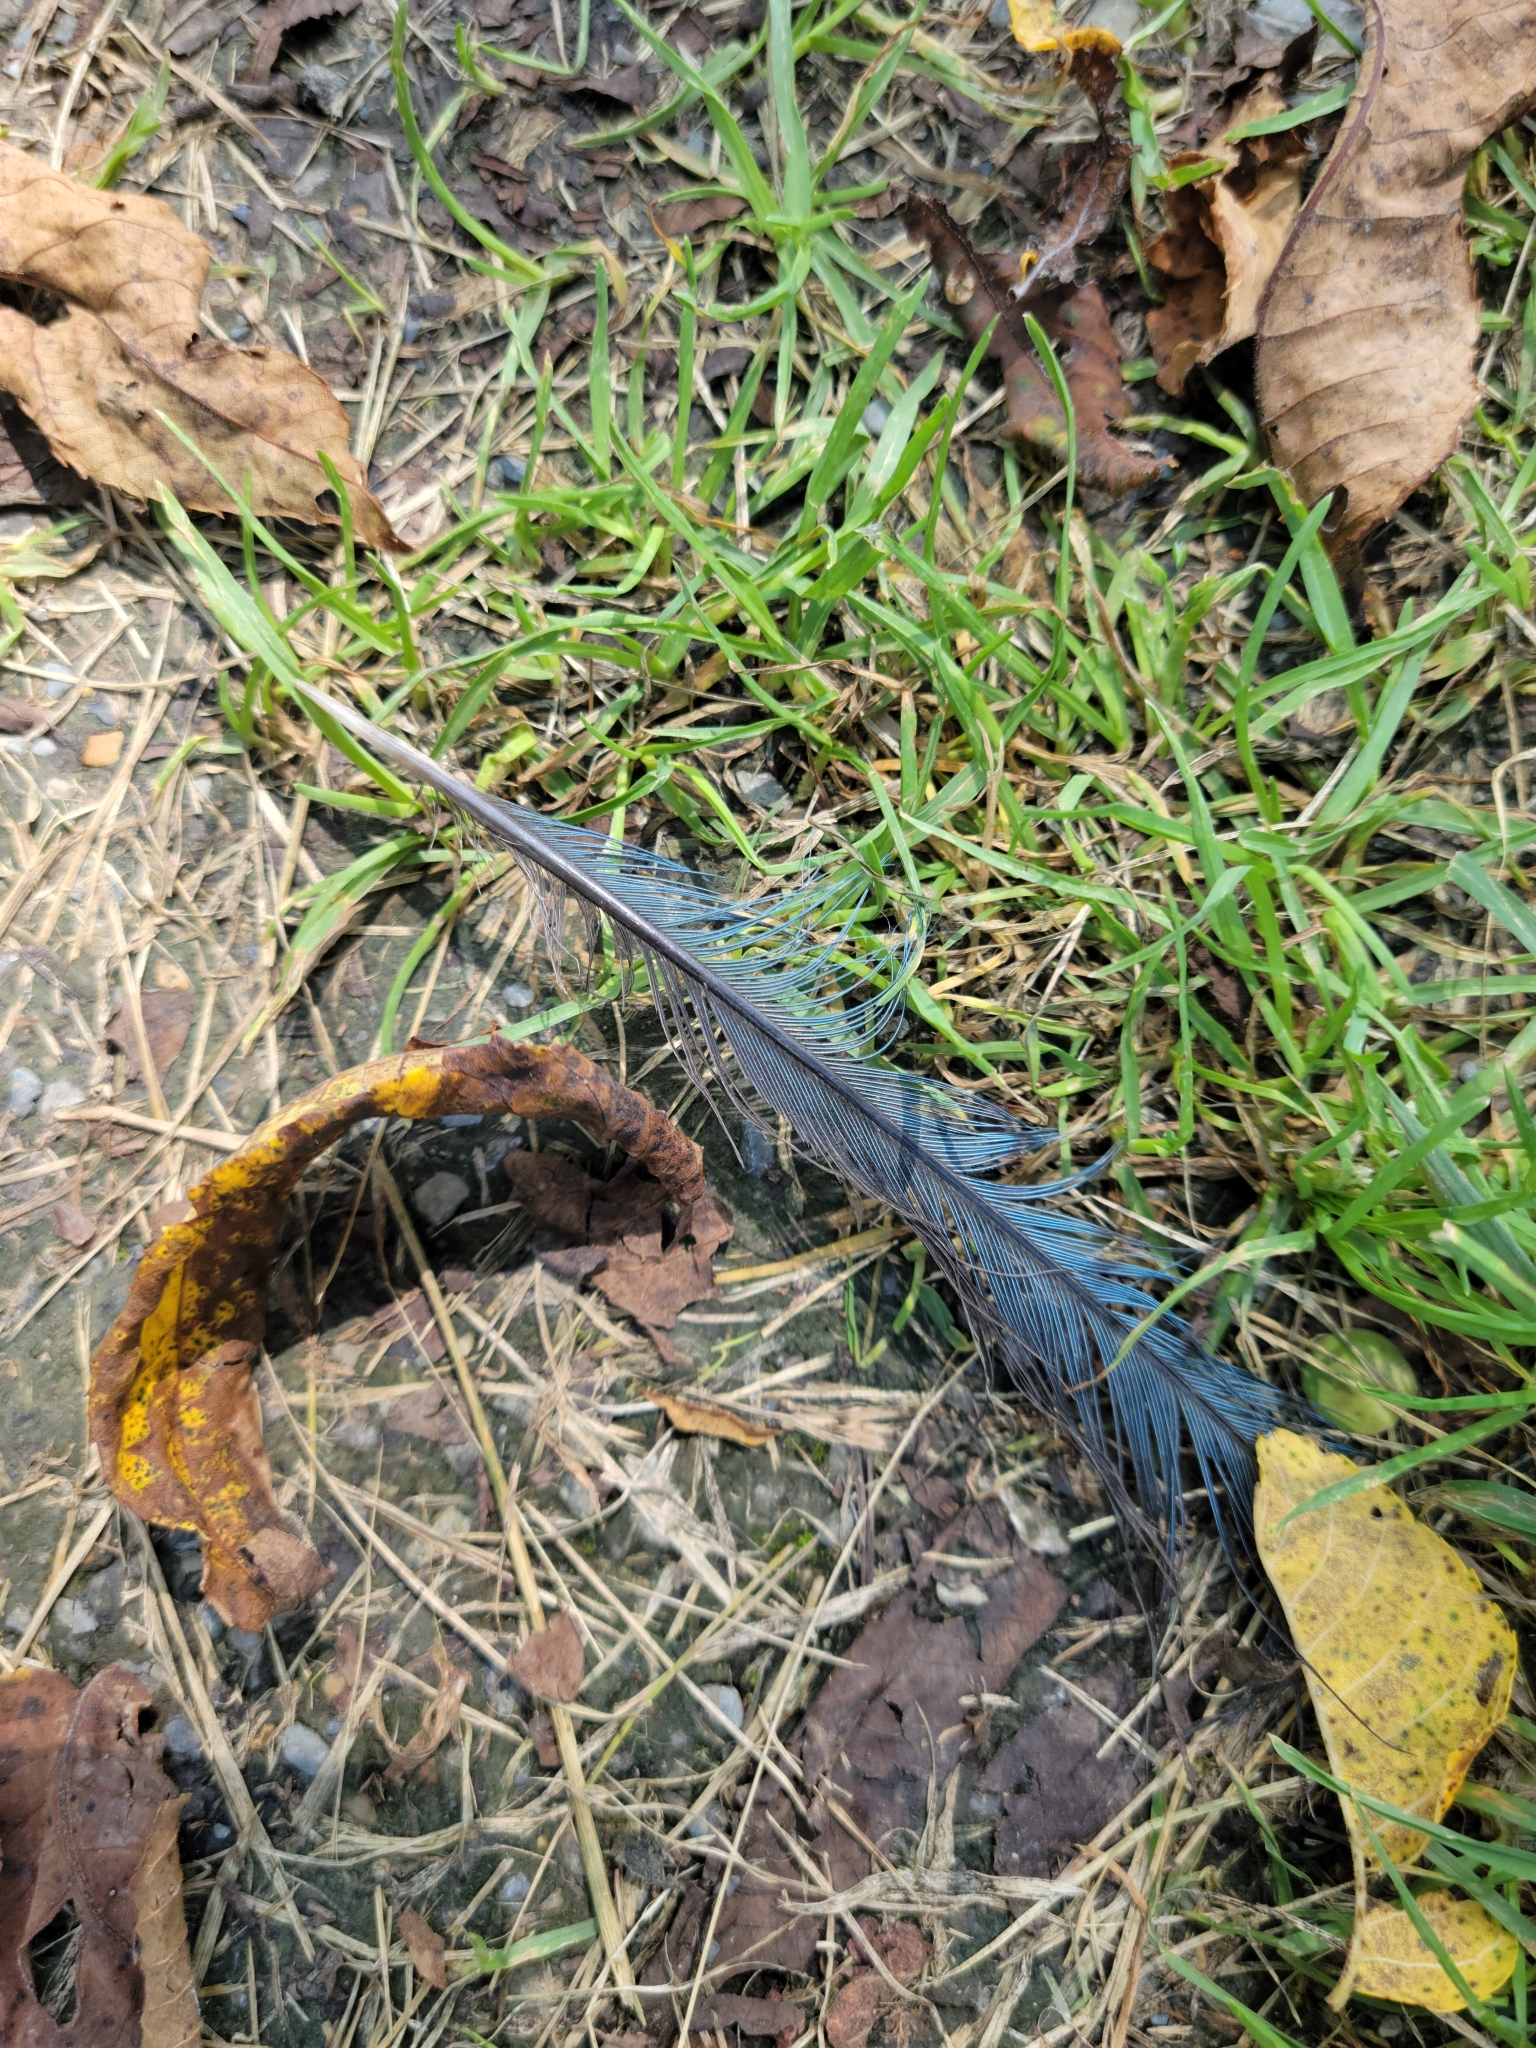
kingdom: Animalia
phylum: Chordata
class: Aves
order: Passeriformes
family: Corvidae
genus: Cyanocitta
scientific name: Cyanocitta cristata
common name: Blue jay
